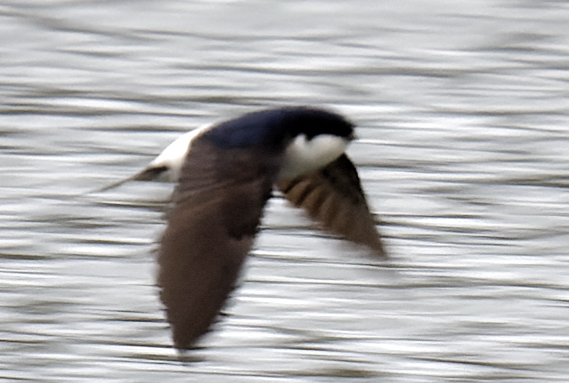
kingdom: Animalia
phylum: Chordata
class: Aves
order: Passeriformes
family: Hirundinidae
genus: Delichon
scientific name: Delichon urbicum
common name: Common house martin
